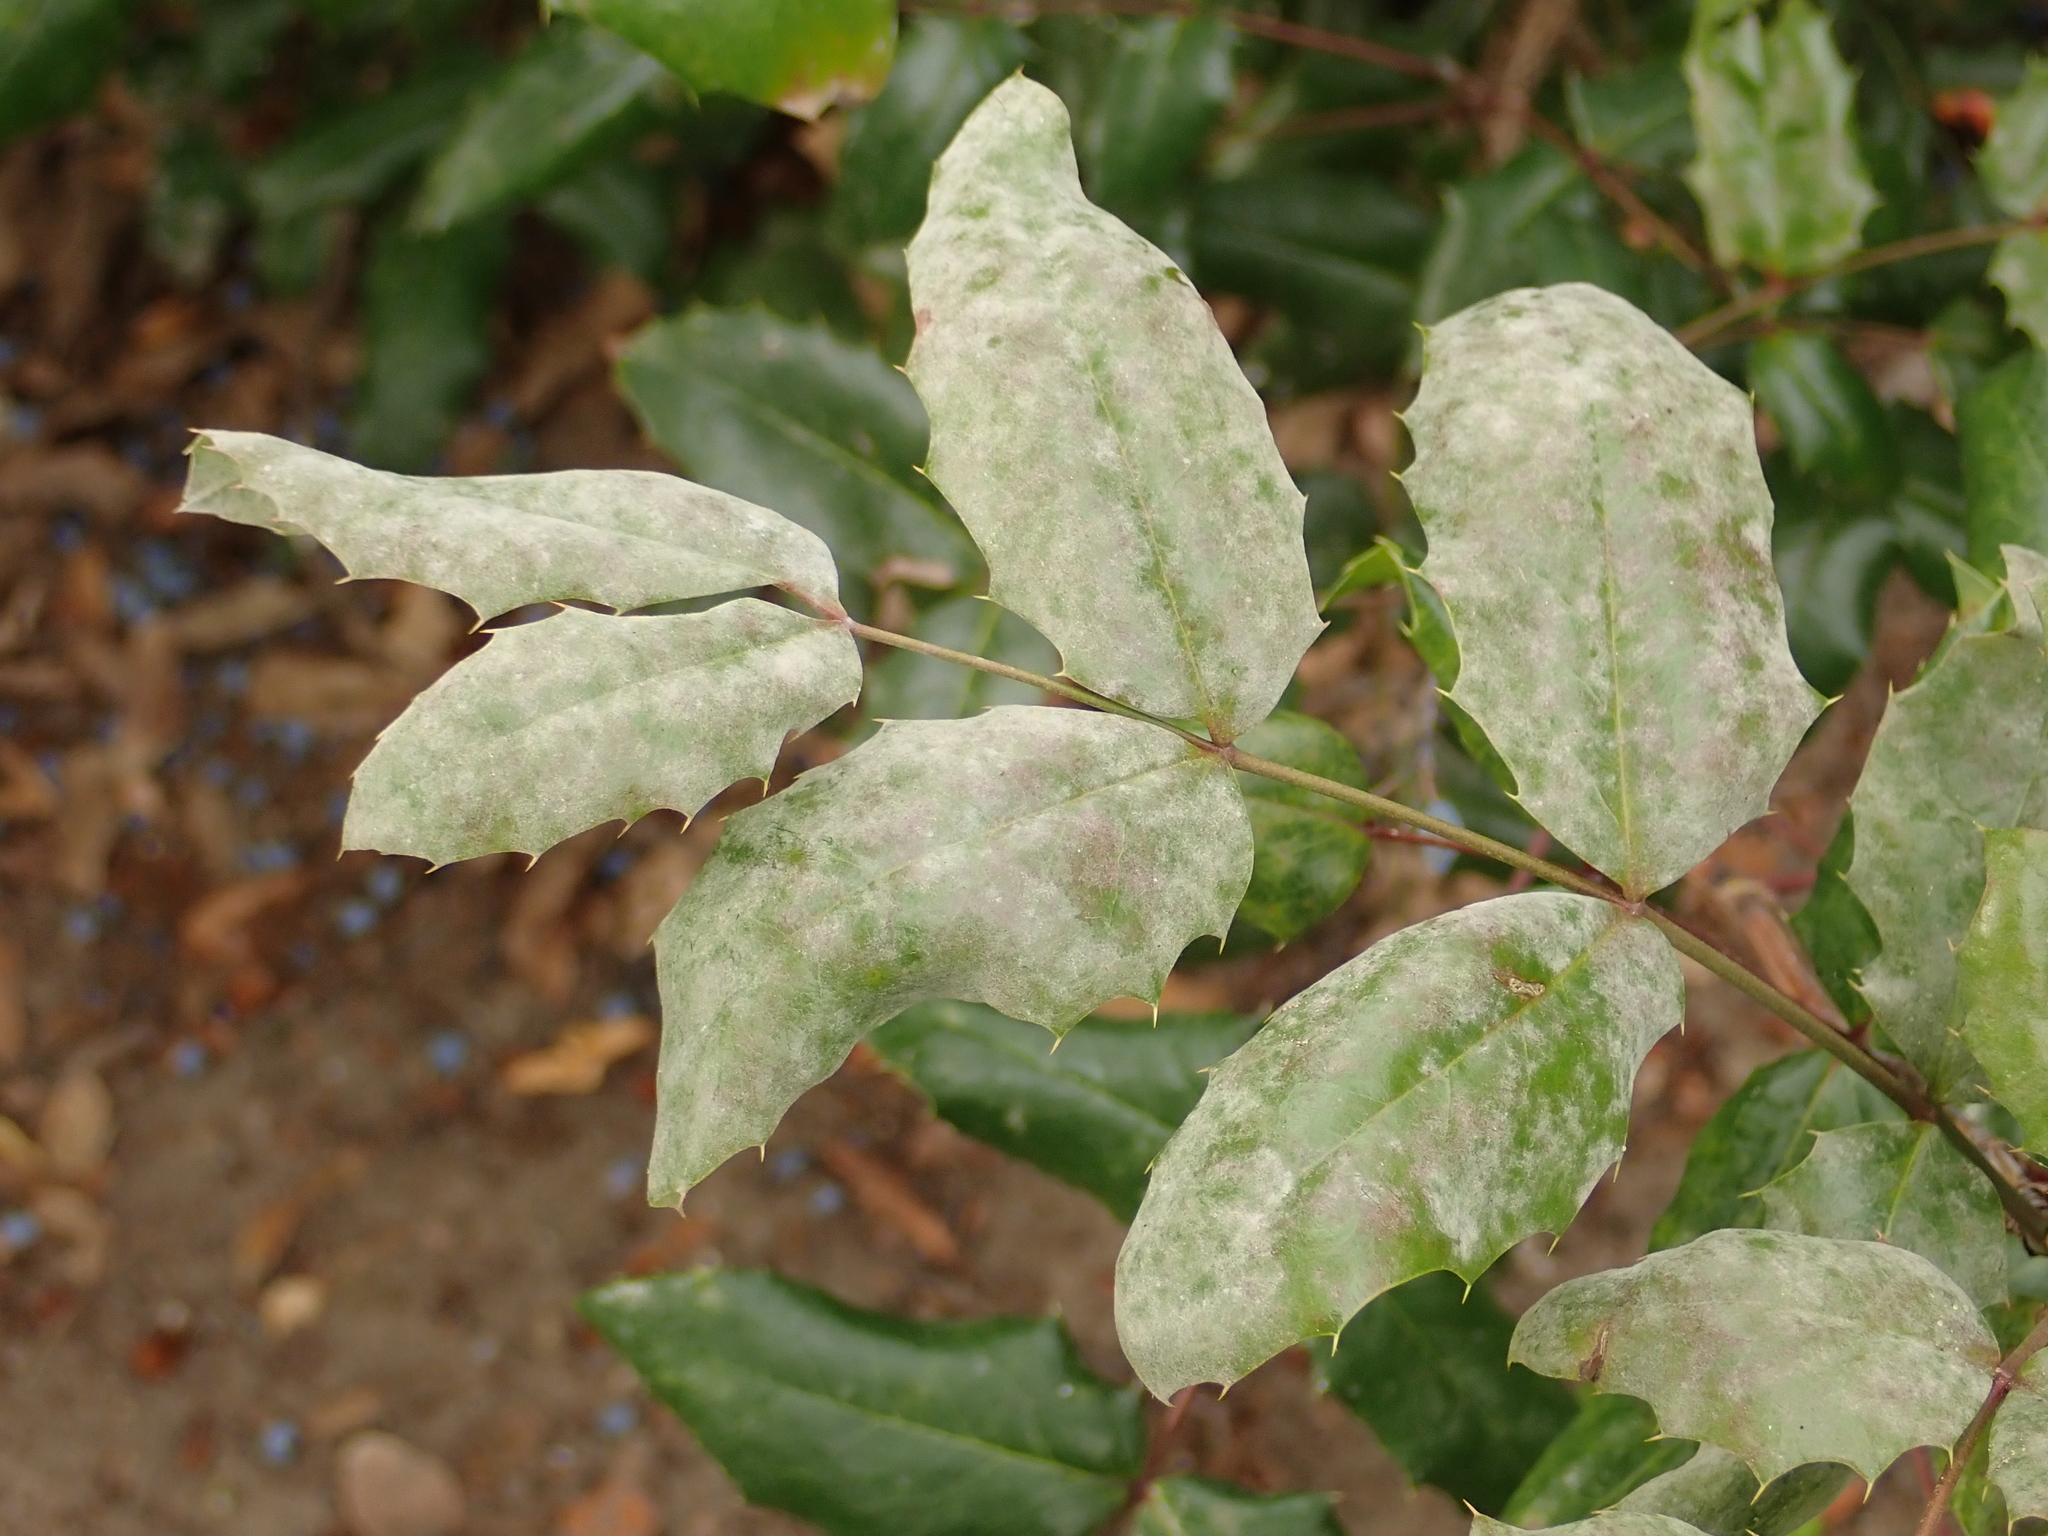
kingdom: Fungi
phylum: Ascomycota
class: Leotiomycetes
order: Helotiales
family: Erysiphaceae
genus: Erysiphe
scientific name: Erysiphe berberidis
